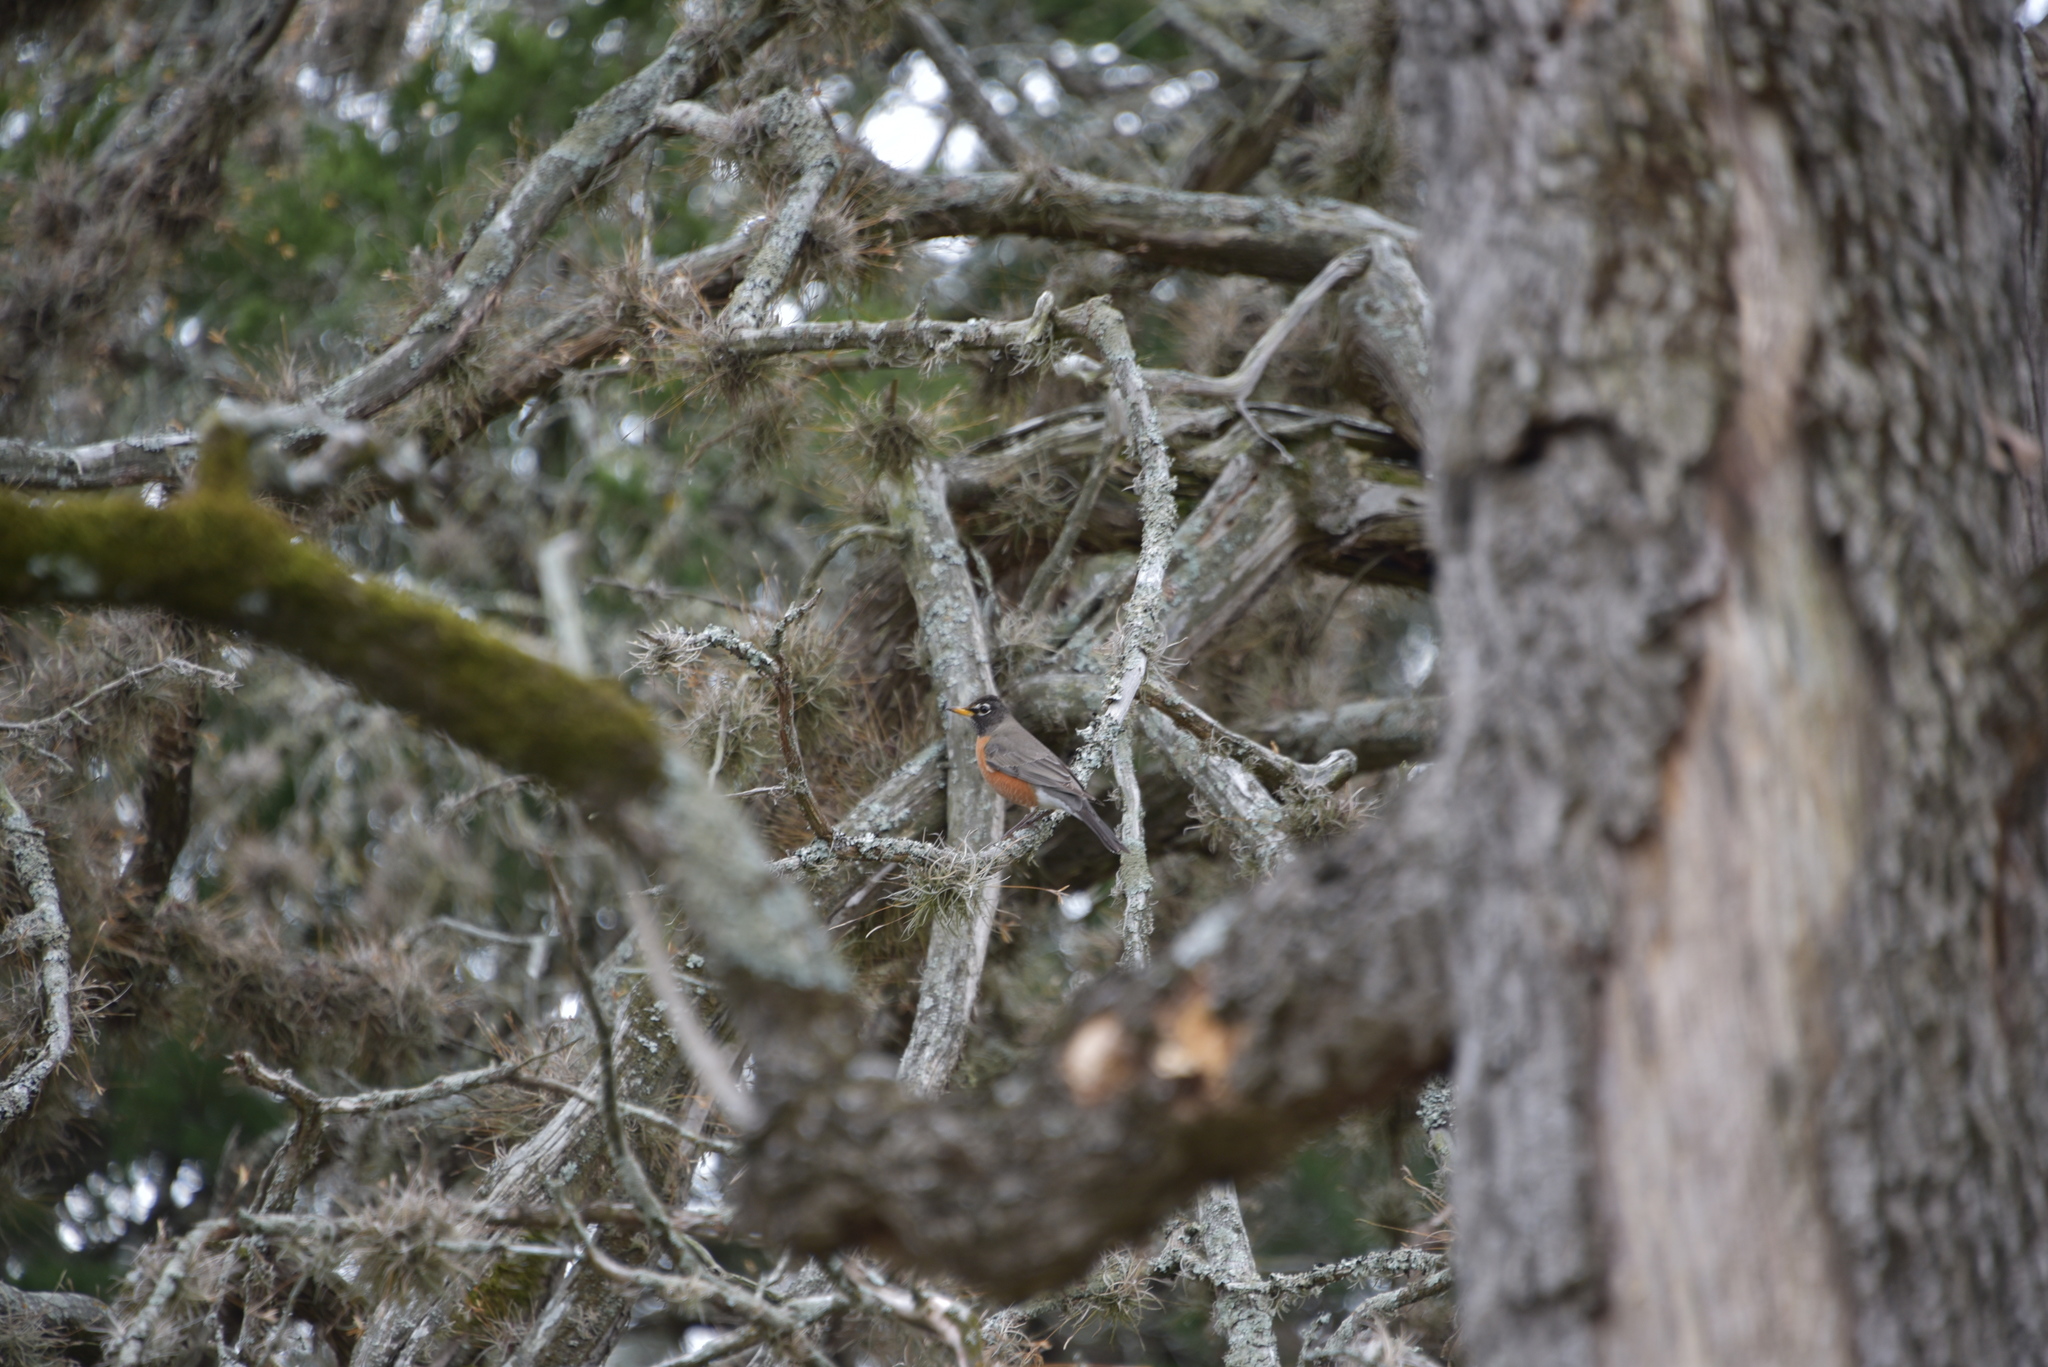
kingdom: Animalia
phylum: Chordata
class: Aves
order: Passeriformes
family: Turdidae
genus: Turdus
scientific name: Turdus migratorius
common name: American robin
